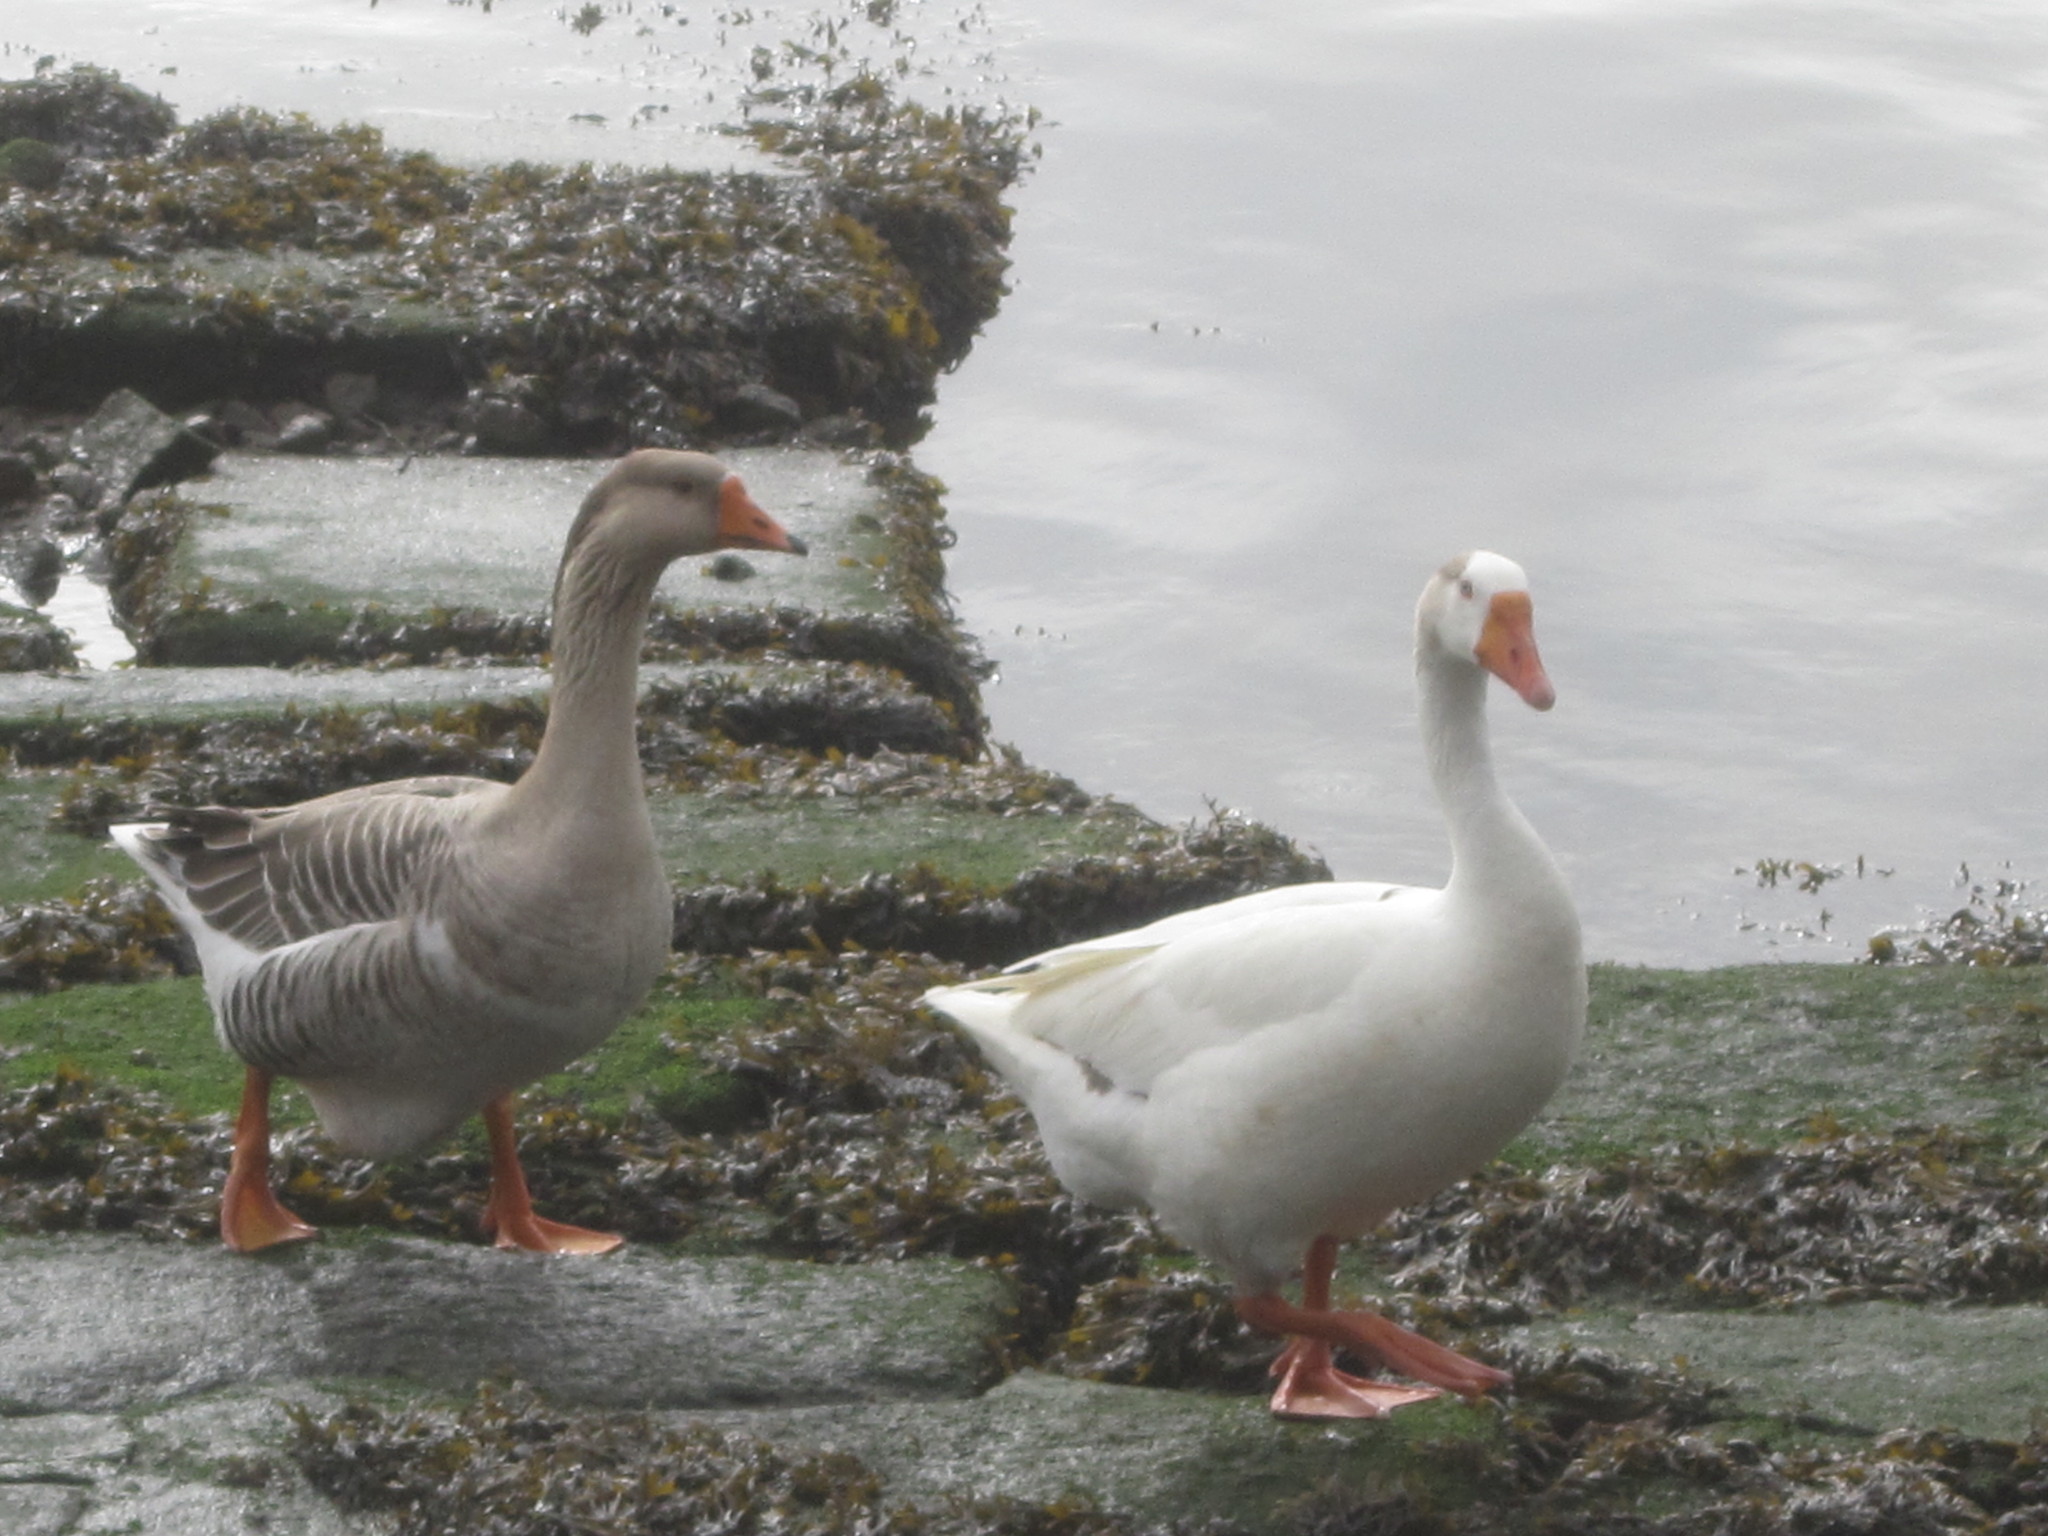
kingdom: Animalia
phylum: Chordata
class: Aves
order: Anseriformes
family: Anatidae
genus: Anser
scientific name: Anser
